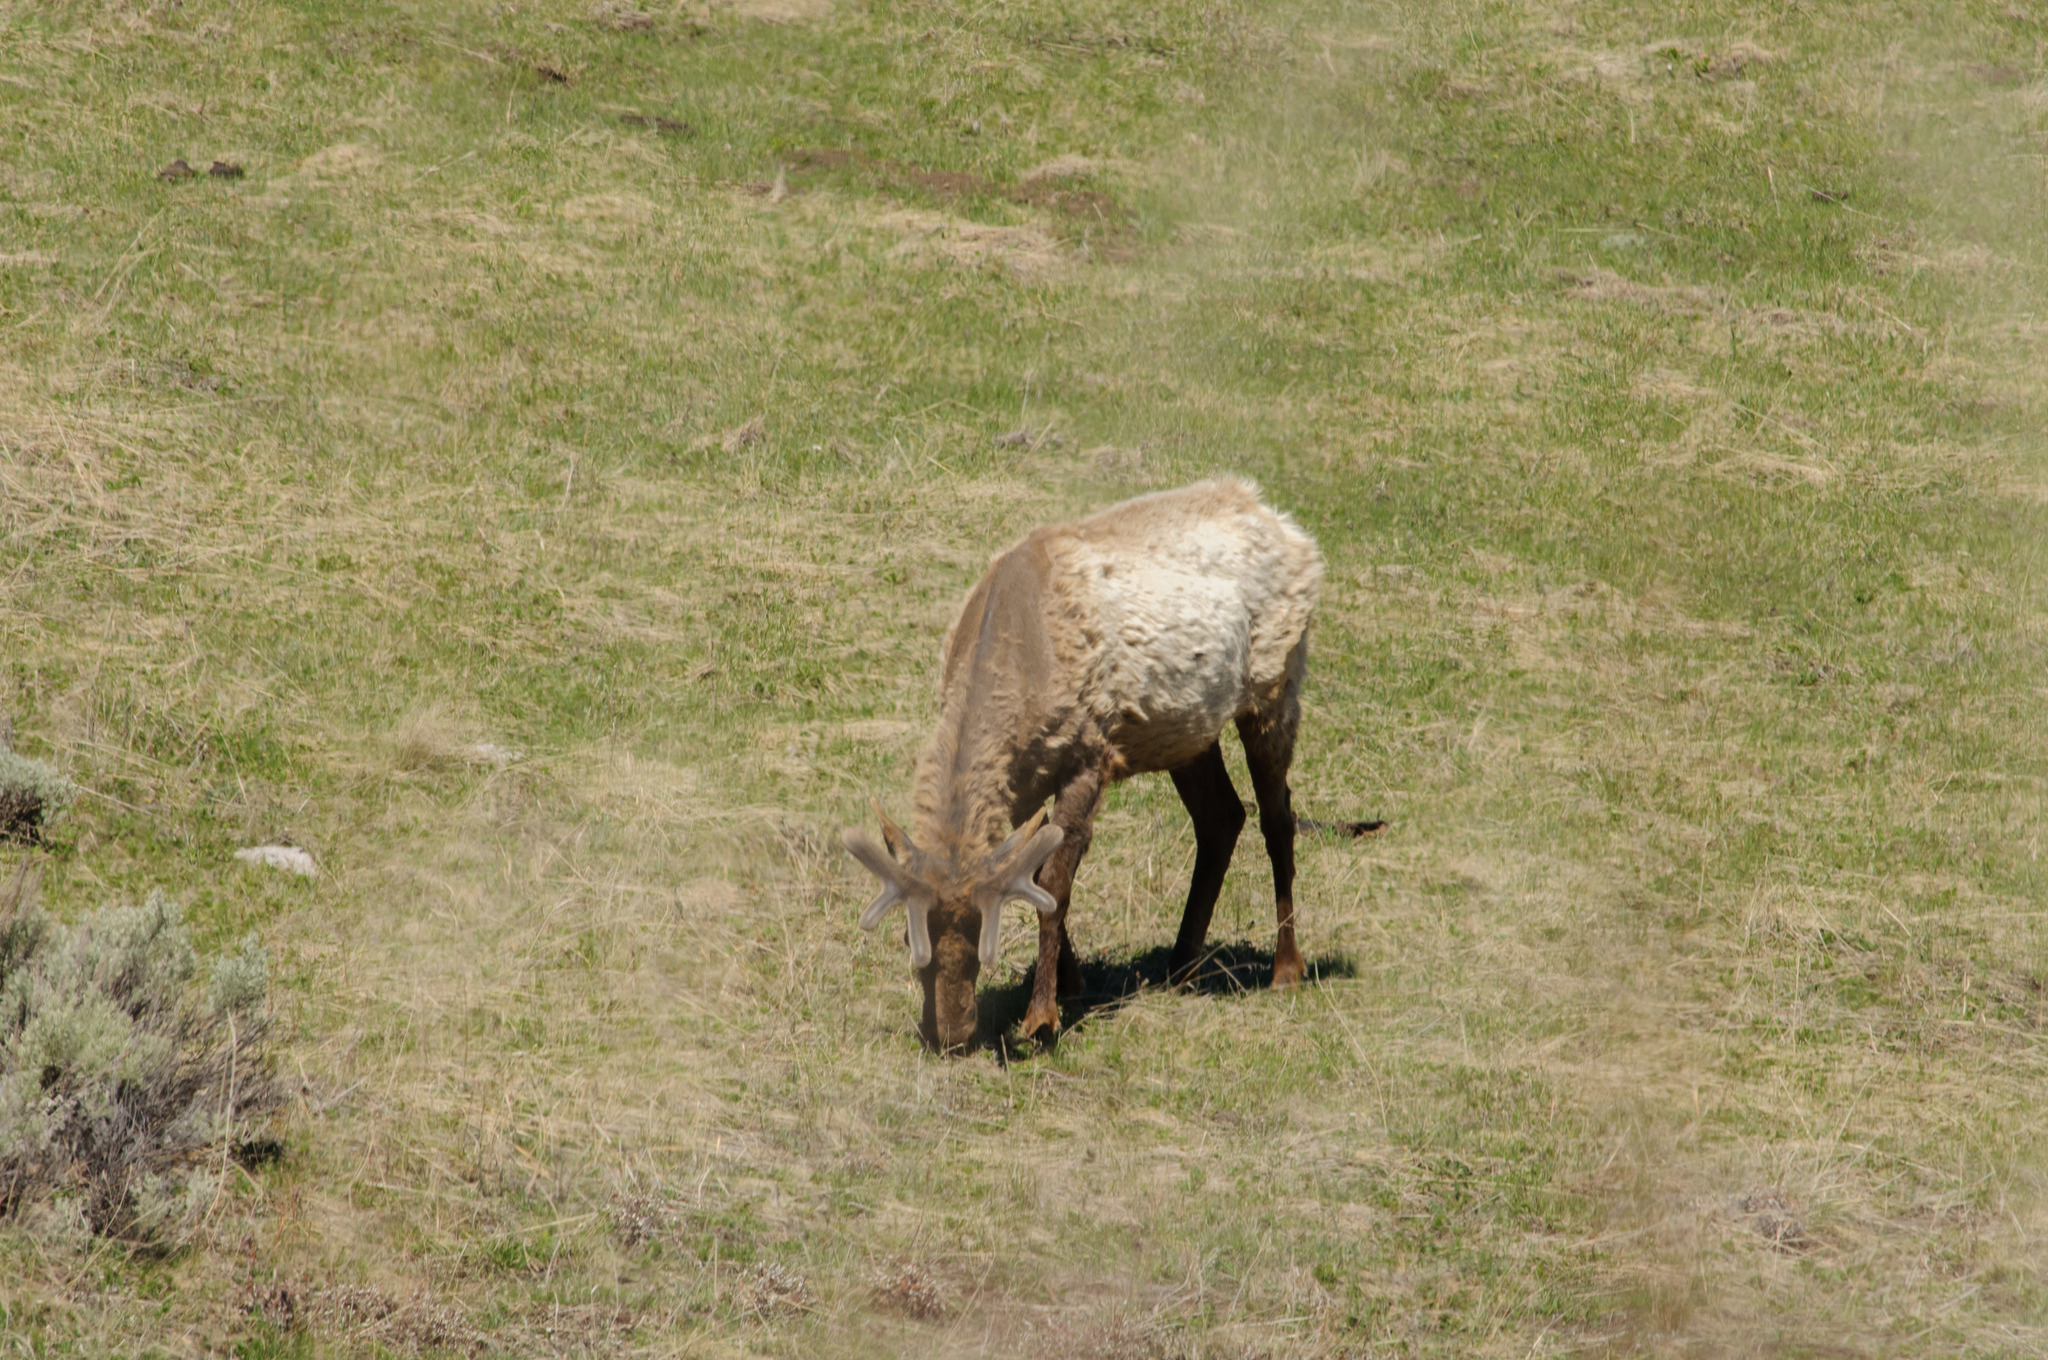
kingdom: Animalia
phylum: Chordata
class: Mammalia
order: Artiodactyla
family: Cervidae
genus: Cervus
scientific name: Cervus elaphus
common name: Red deer
